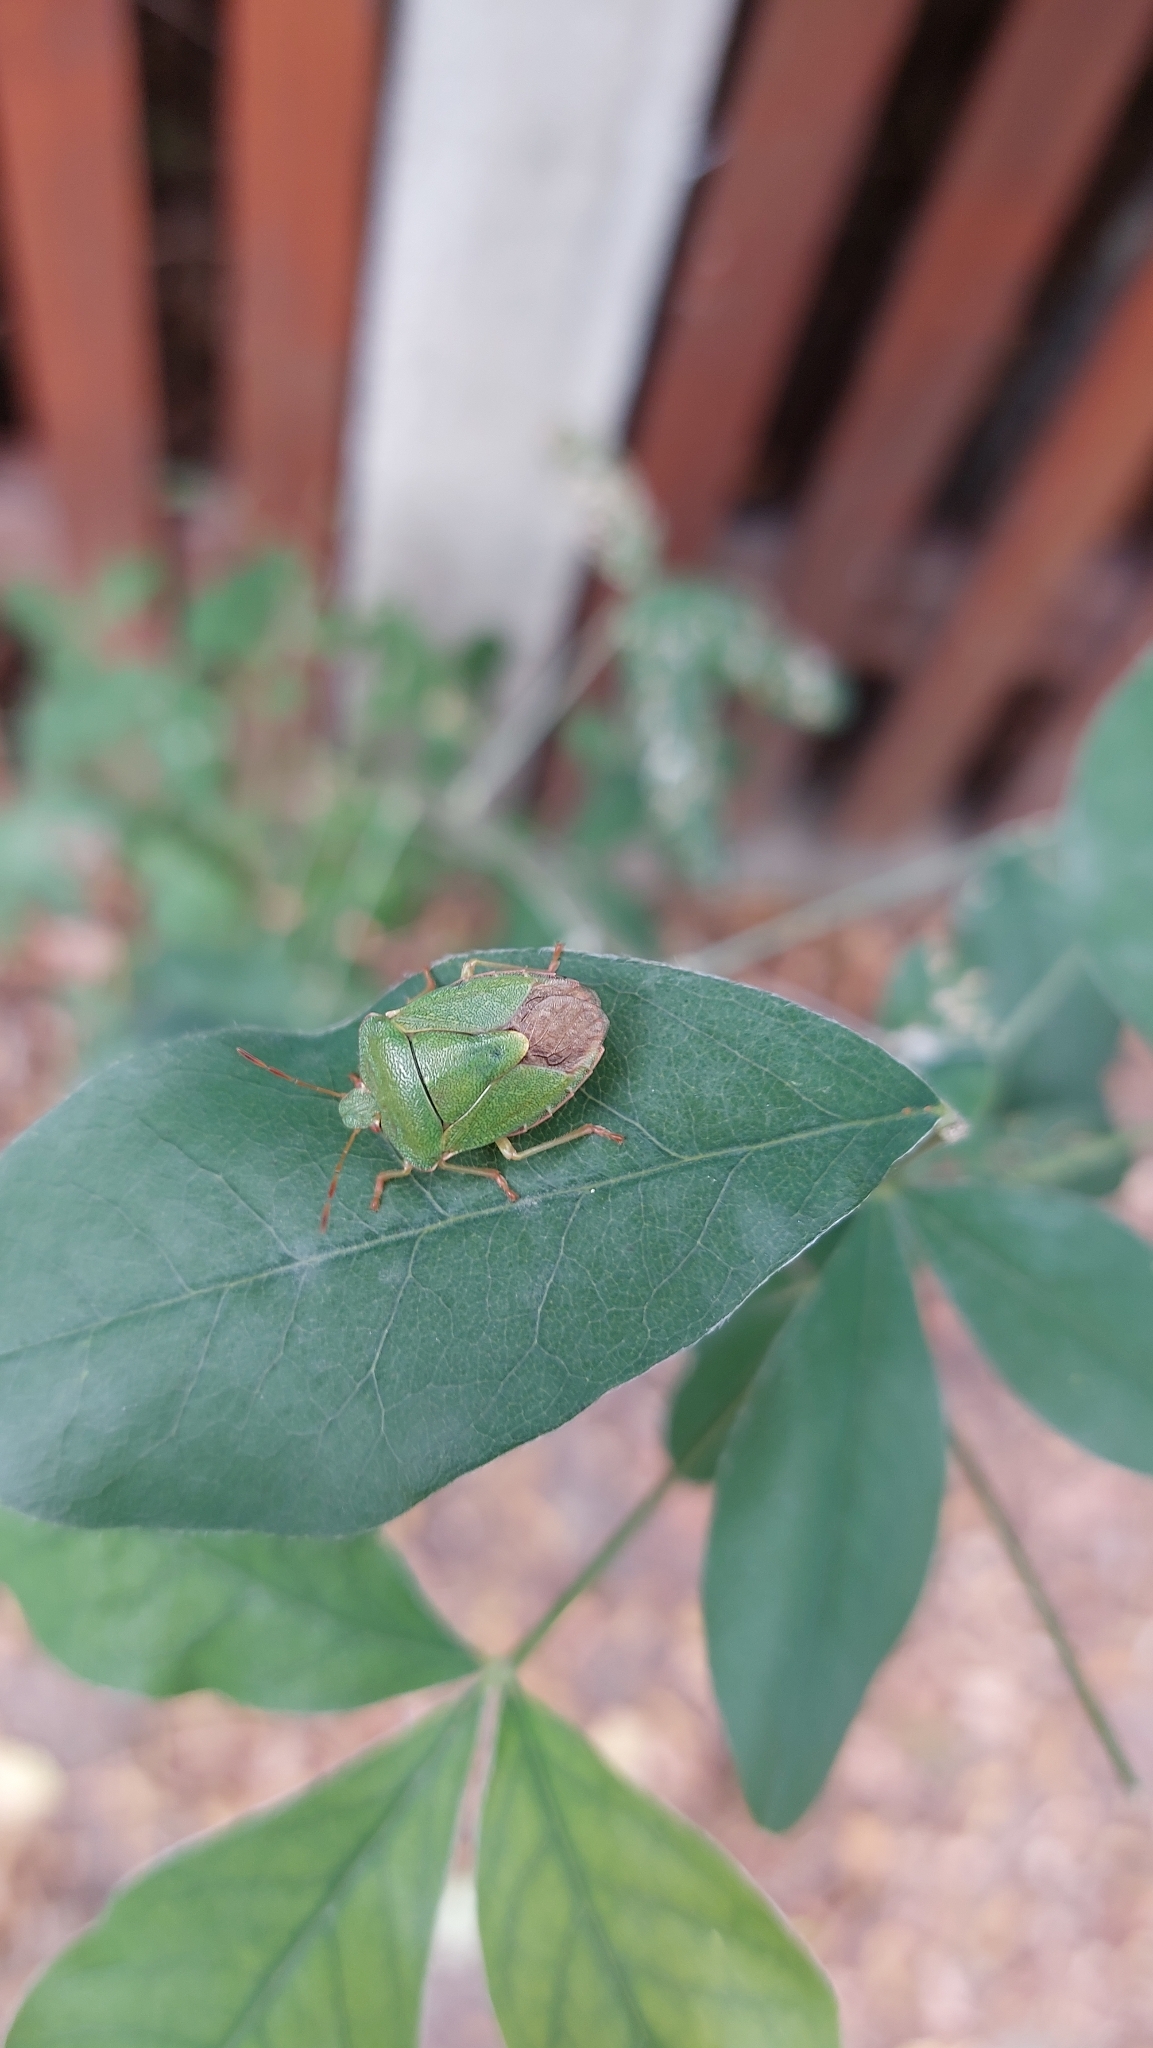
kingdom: Animalia
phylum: Arthropoda
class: Insecta
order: Hemiptera
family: Pentatomidae
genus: Palomena
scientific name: Palomena prasina
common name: Green shieldbug
